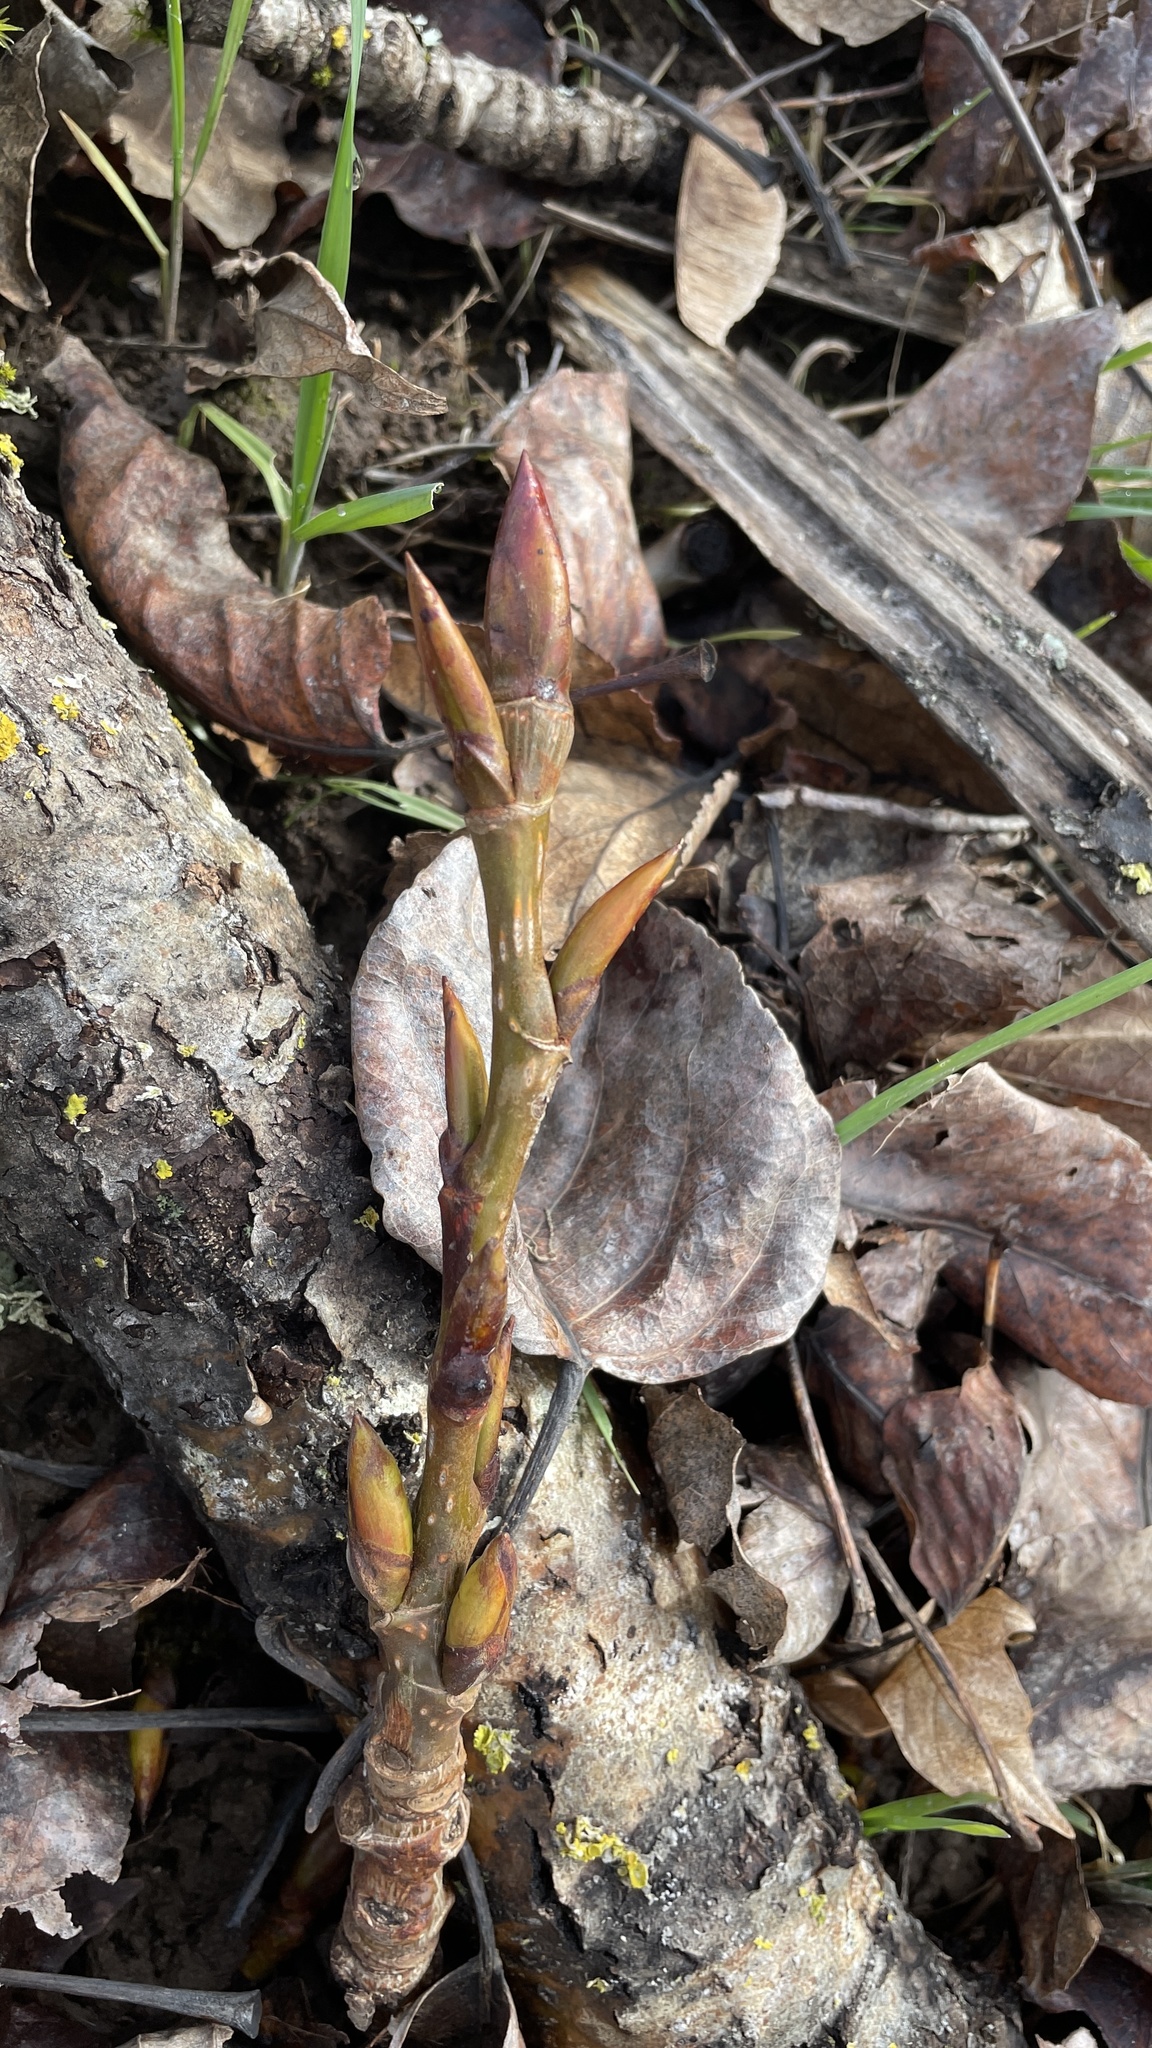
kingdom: Plantae
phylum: Tracheophyta
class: Magnoliopsida
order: Malpighiales
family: Salicaceae
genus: Populus
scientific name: Populus trichocarpa
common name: Black cottonwood
